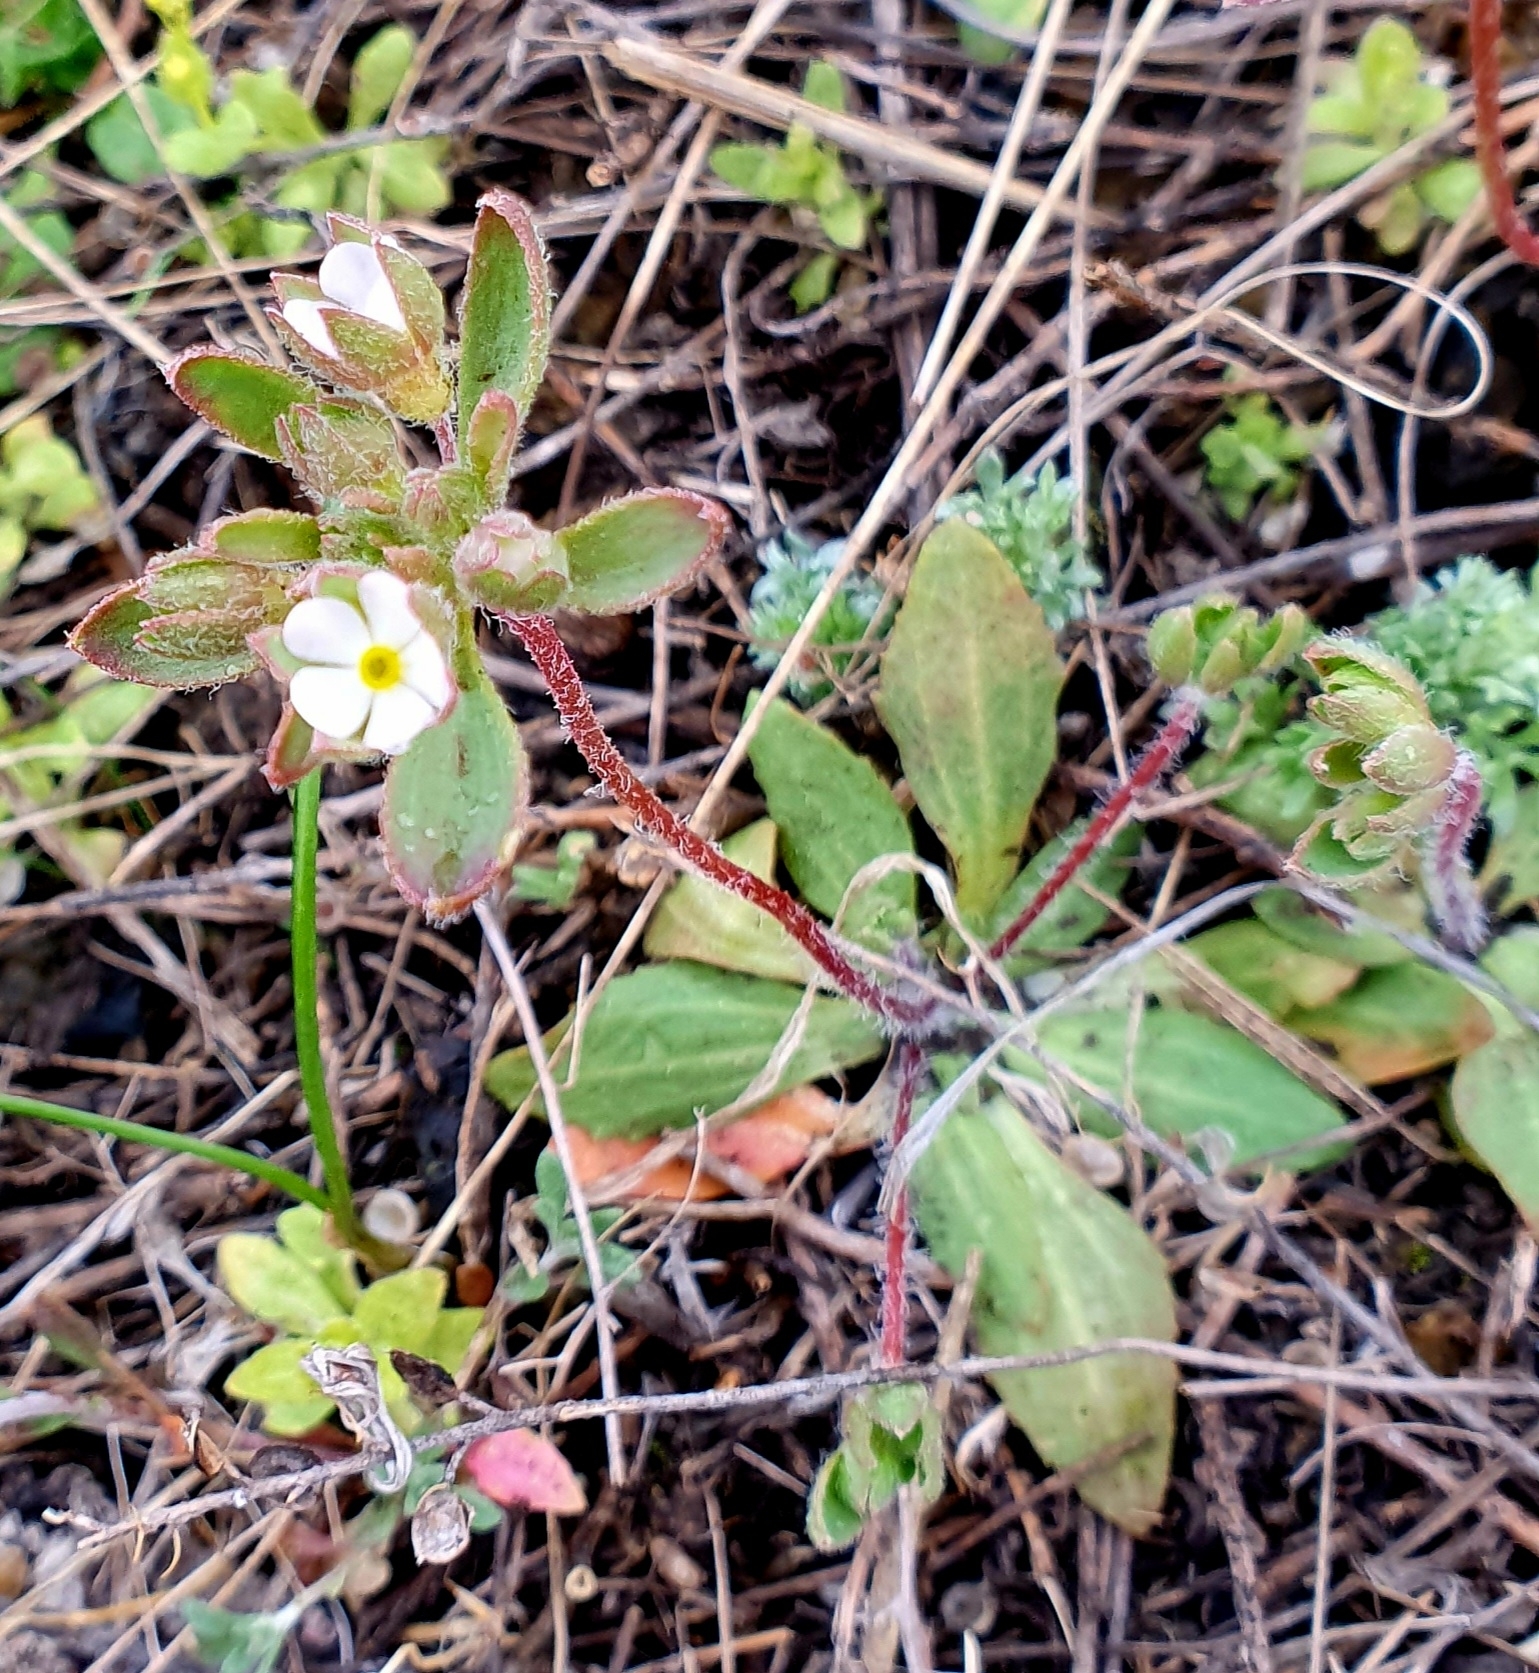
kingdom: Plantae
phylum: Tracheophyta
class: Magnoliopsida
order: Ericales
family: Primulaceae
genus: Androsace
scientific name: Androsace maxima
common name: Annual androsace
